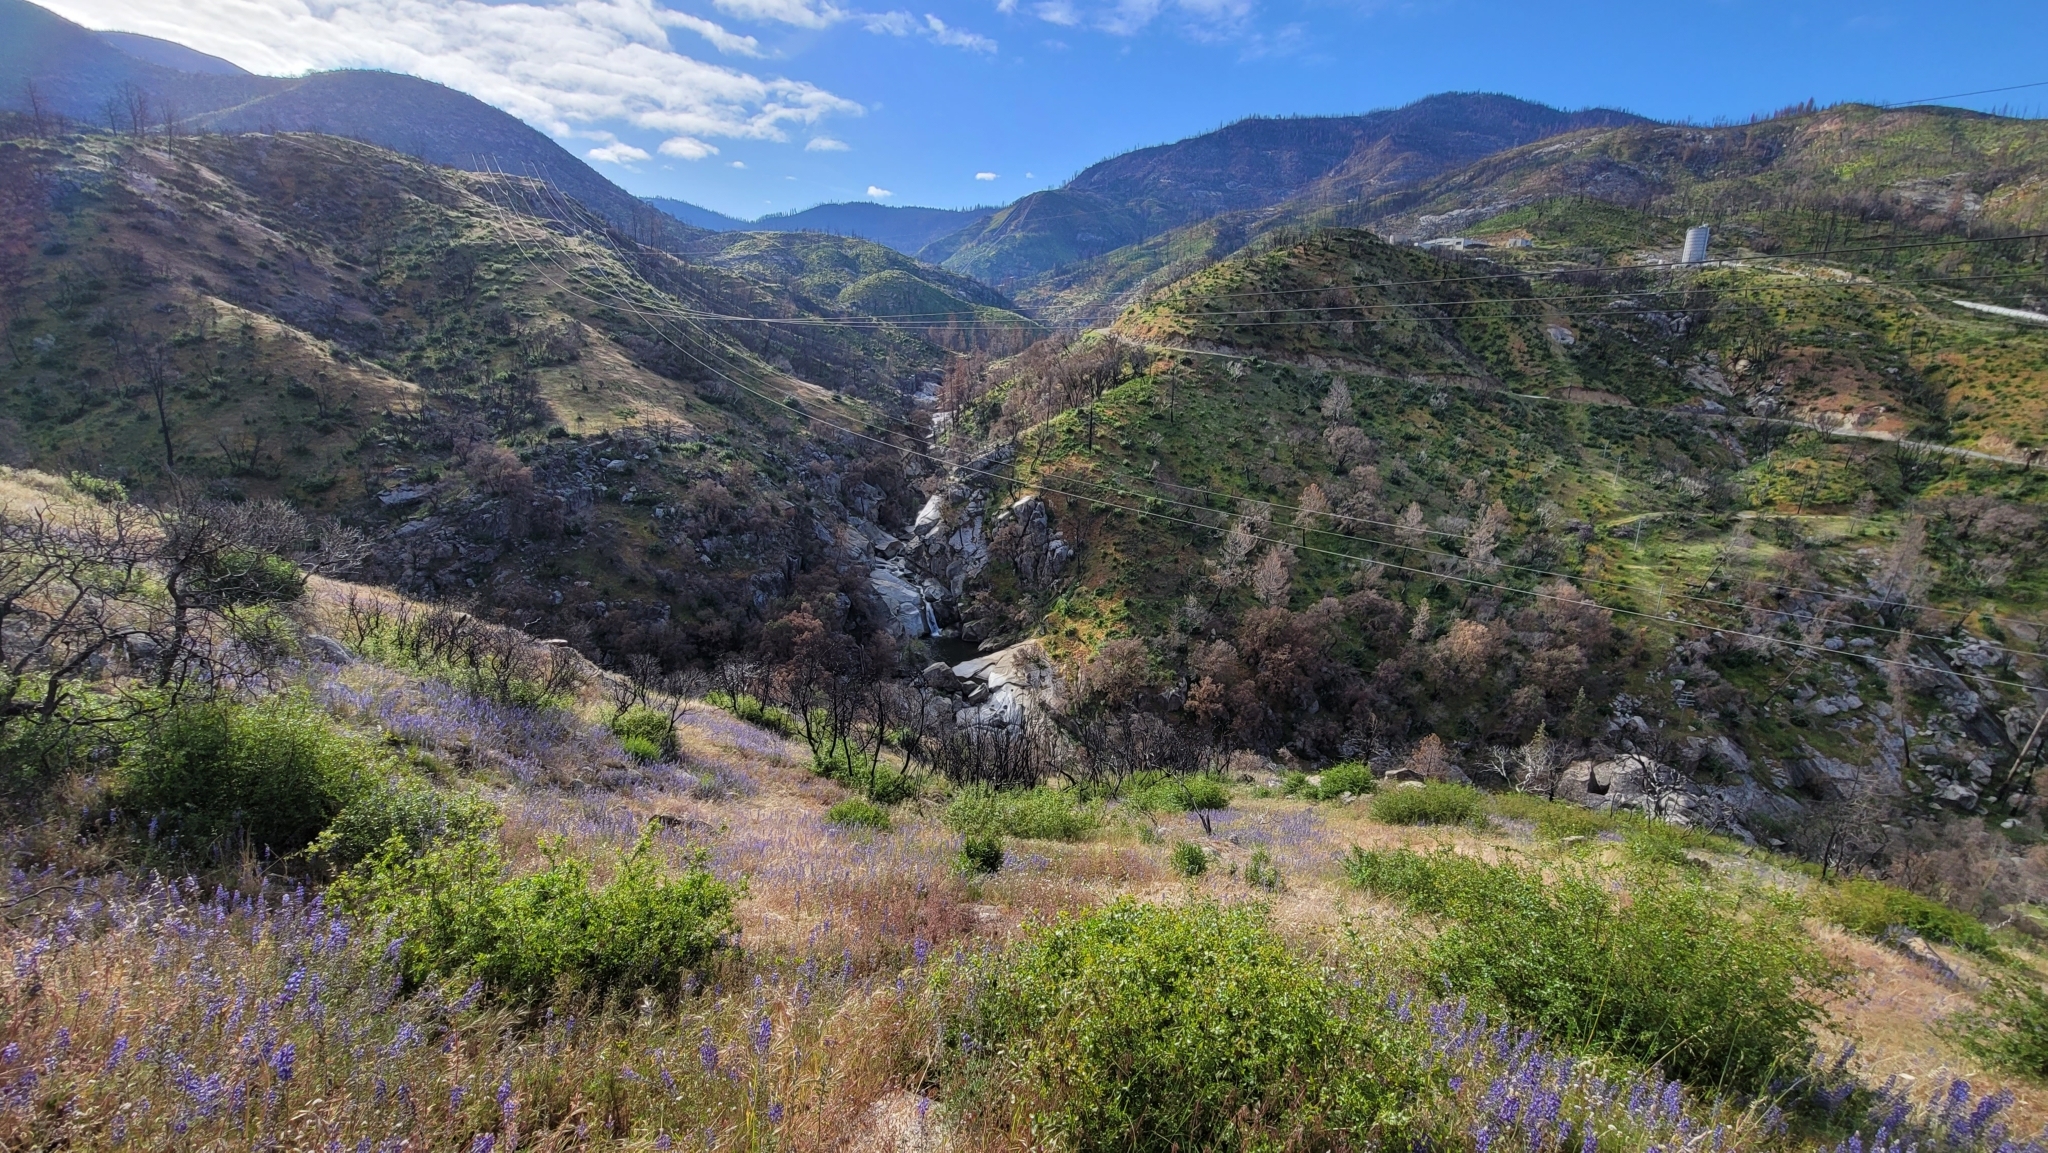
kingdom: Plantae
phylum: Tracheophyta
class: Polypodiopsida
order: Polypodiales
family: Pteridaceae
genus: Pellaea
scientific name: Pellaea mucronata
